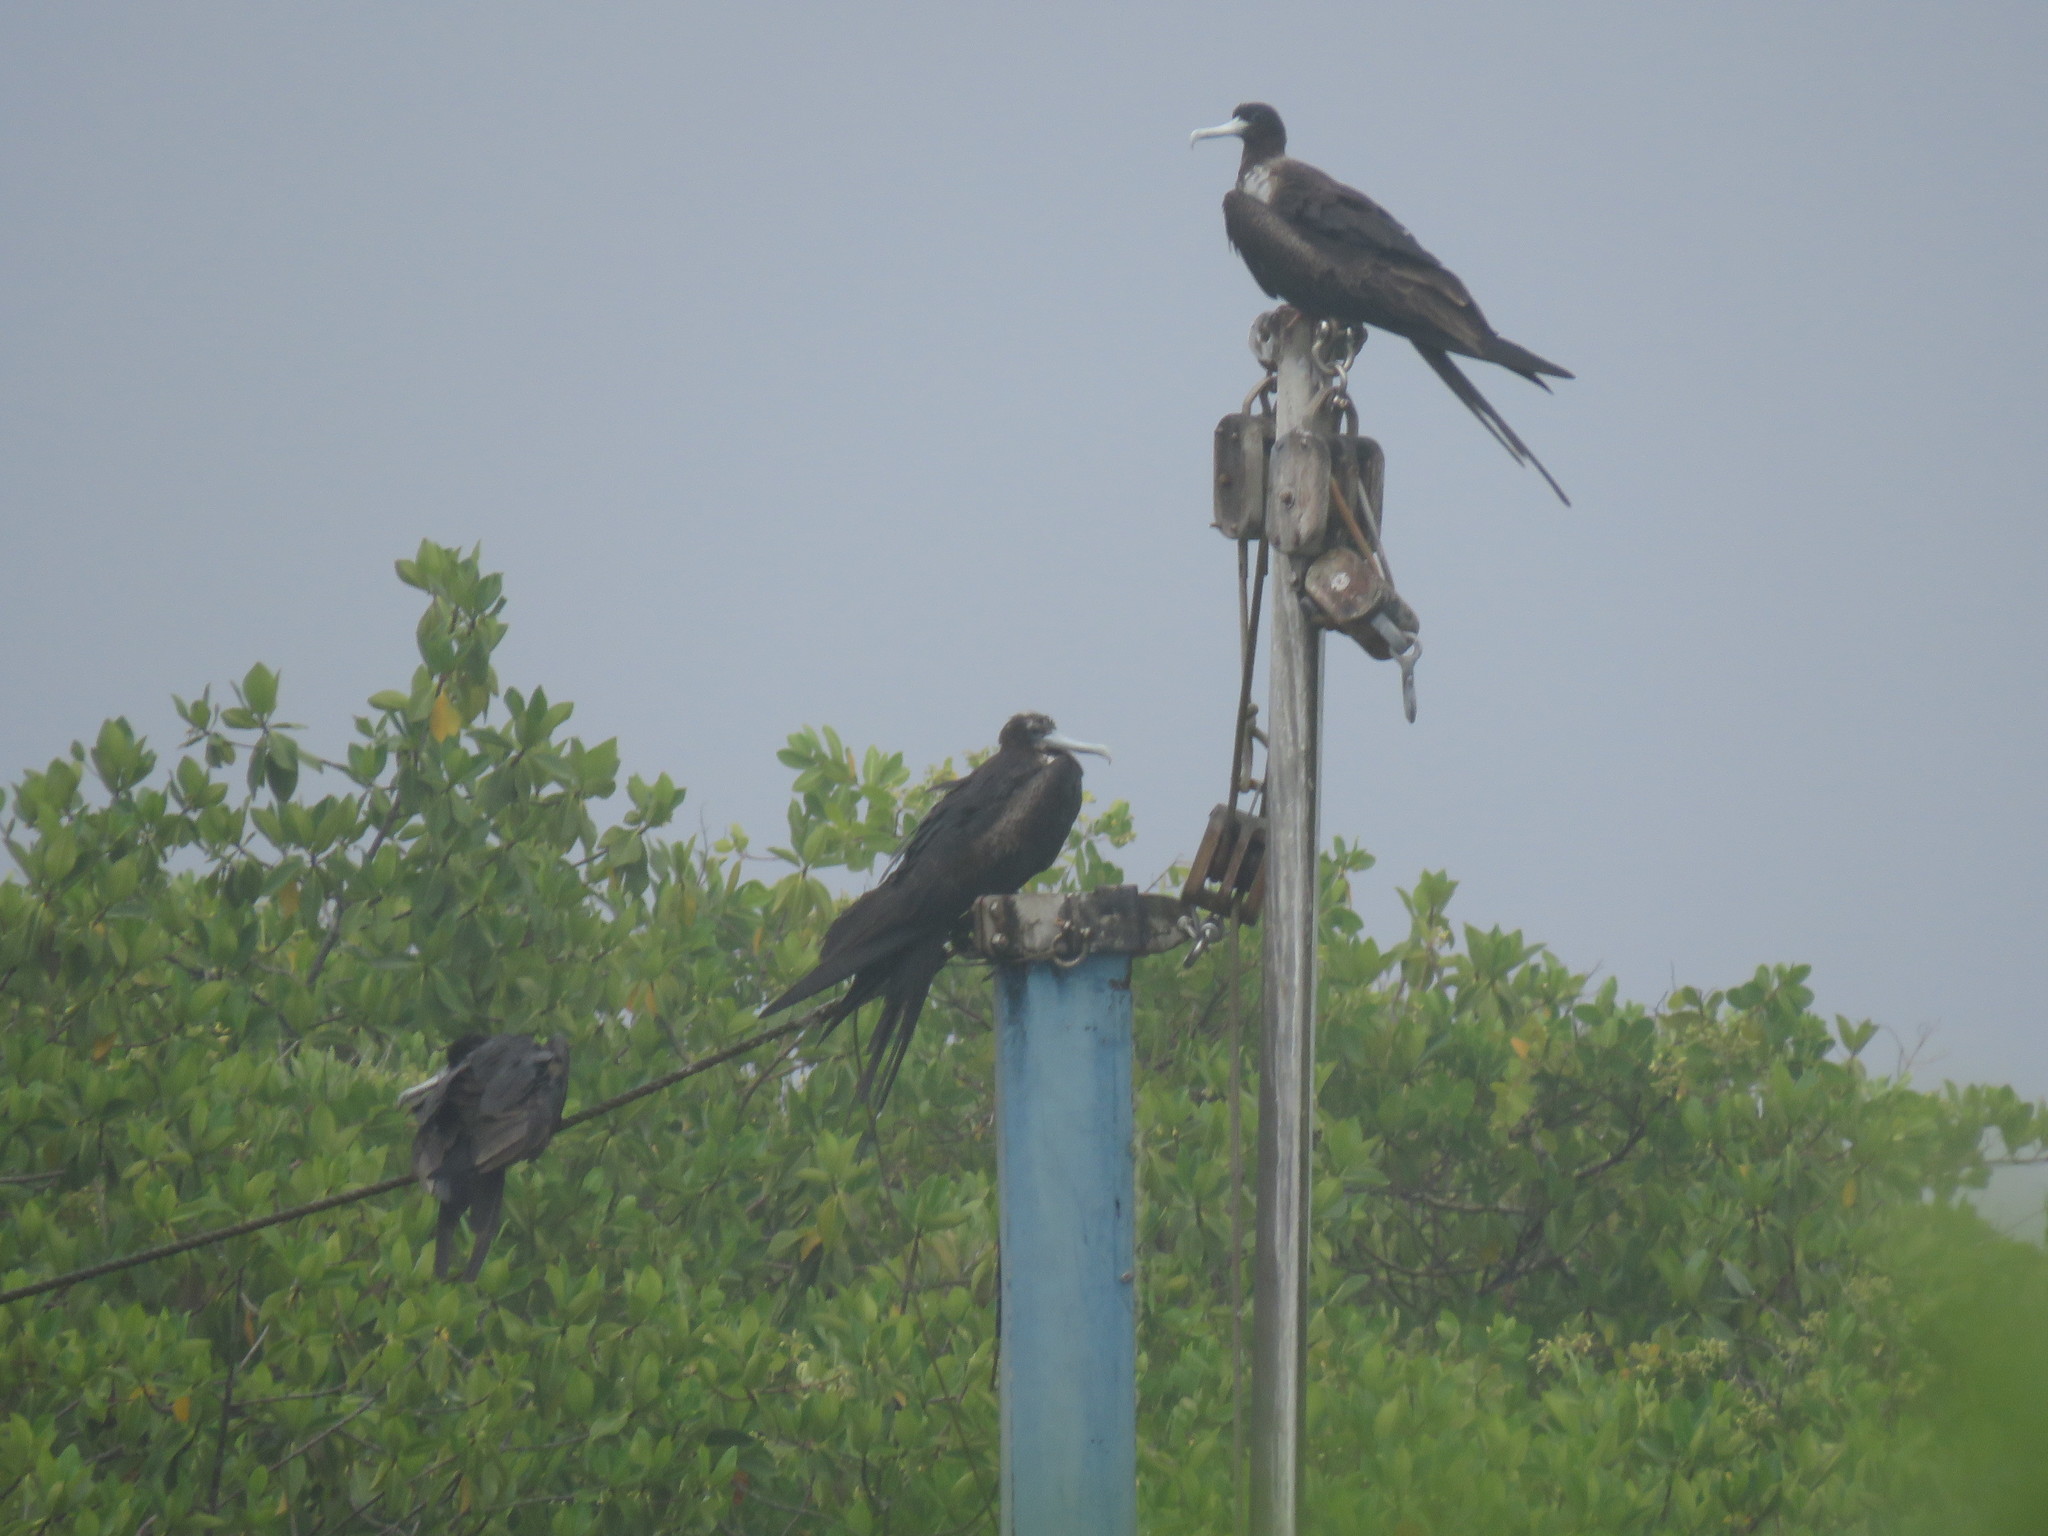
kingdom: Animalia
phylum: Chordata
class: Aves
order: Suliformes
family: Fregatidae
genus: Fregata
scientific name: Fregata magnificens
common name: Magnificent frigatebird
